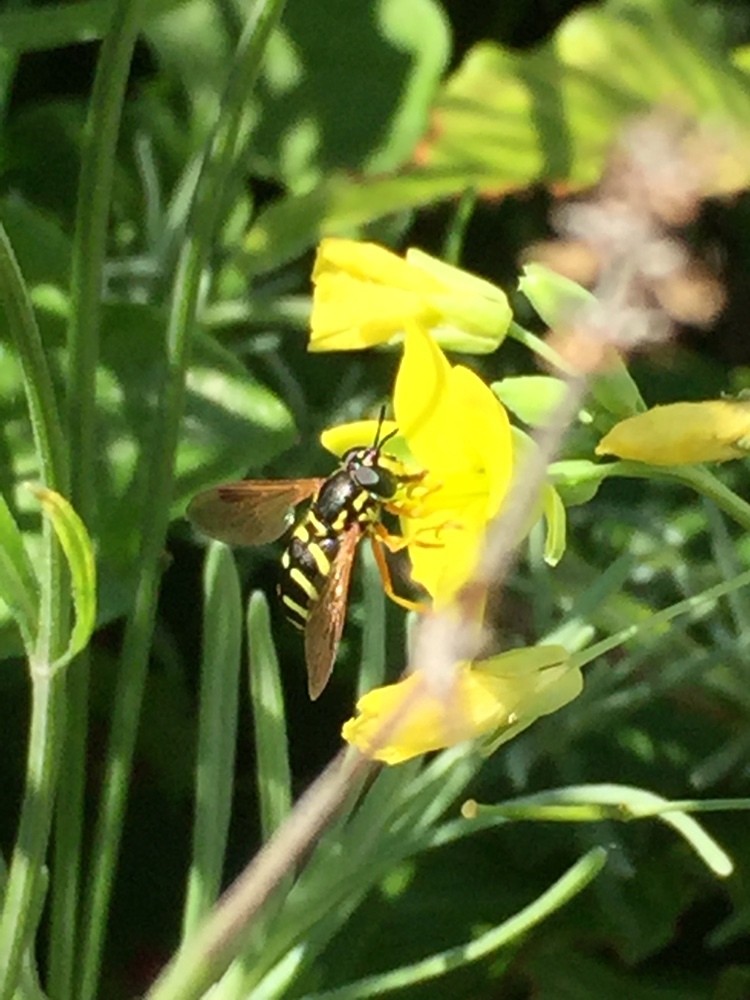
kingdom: Animalia
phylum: Arthropoda
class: Insecta
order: Diptera
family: Syrphidae
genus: Chrysotoxum
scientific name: Chrysotoxum festivum
